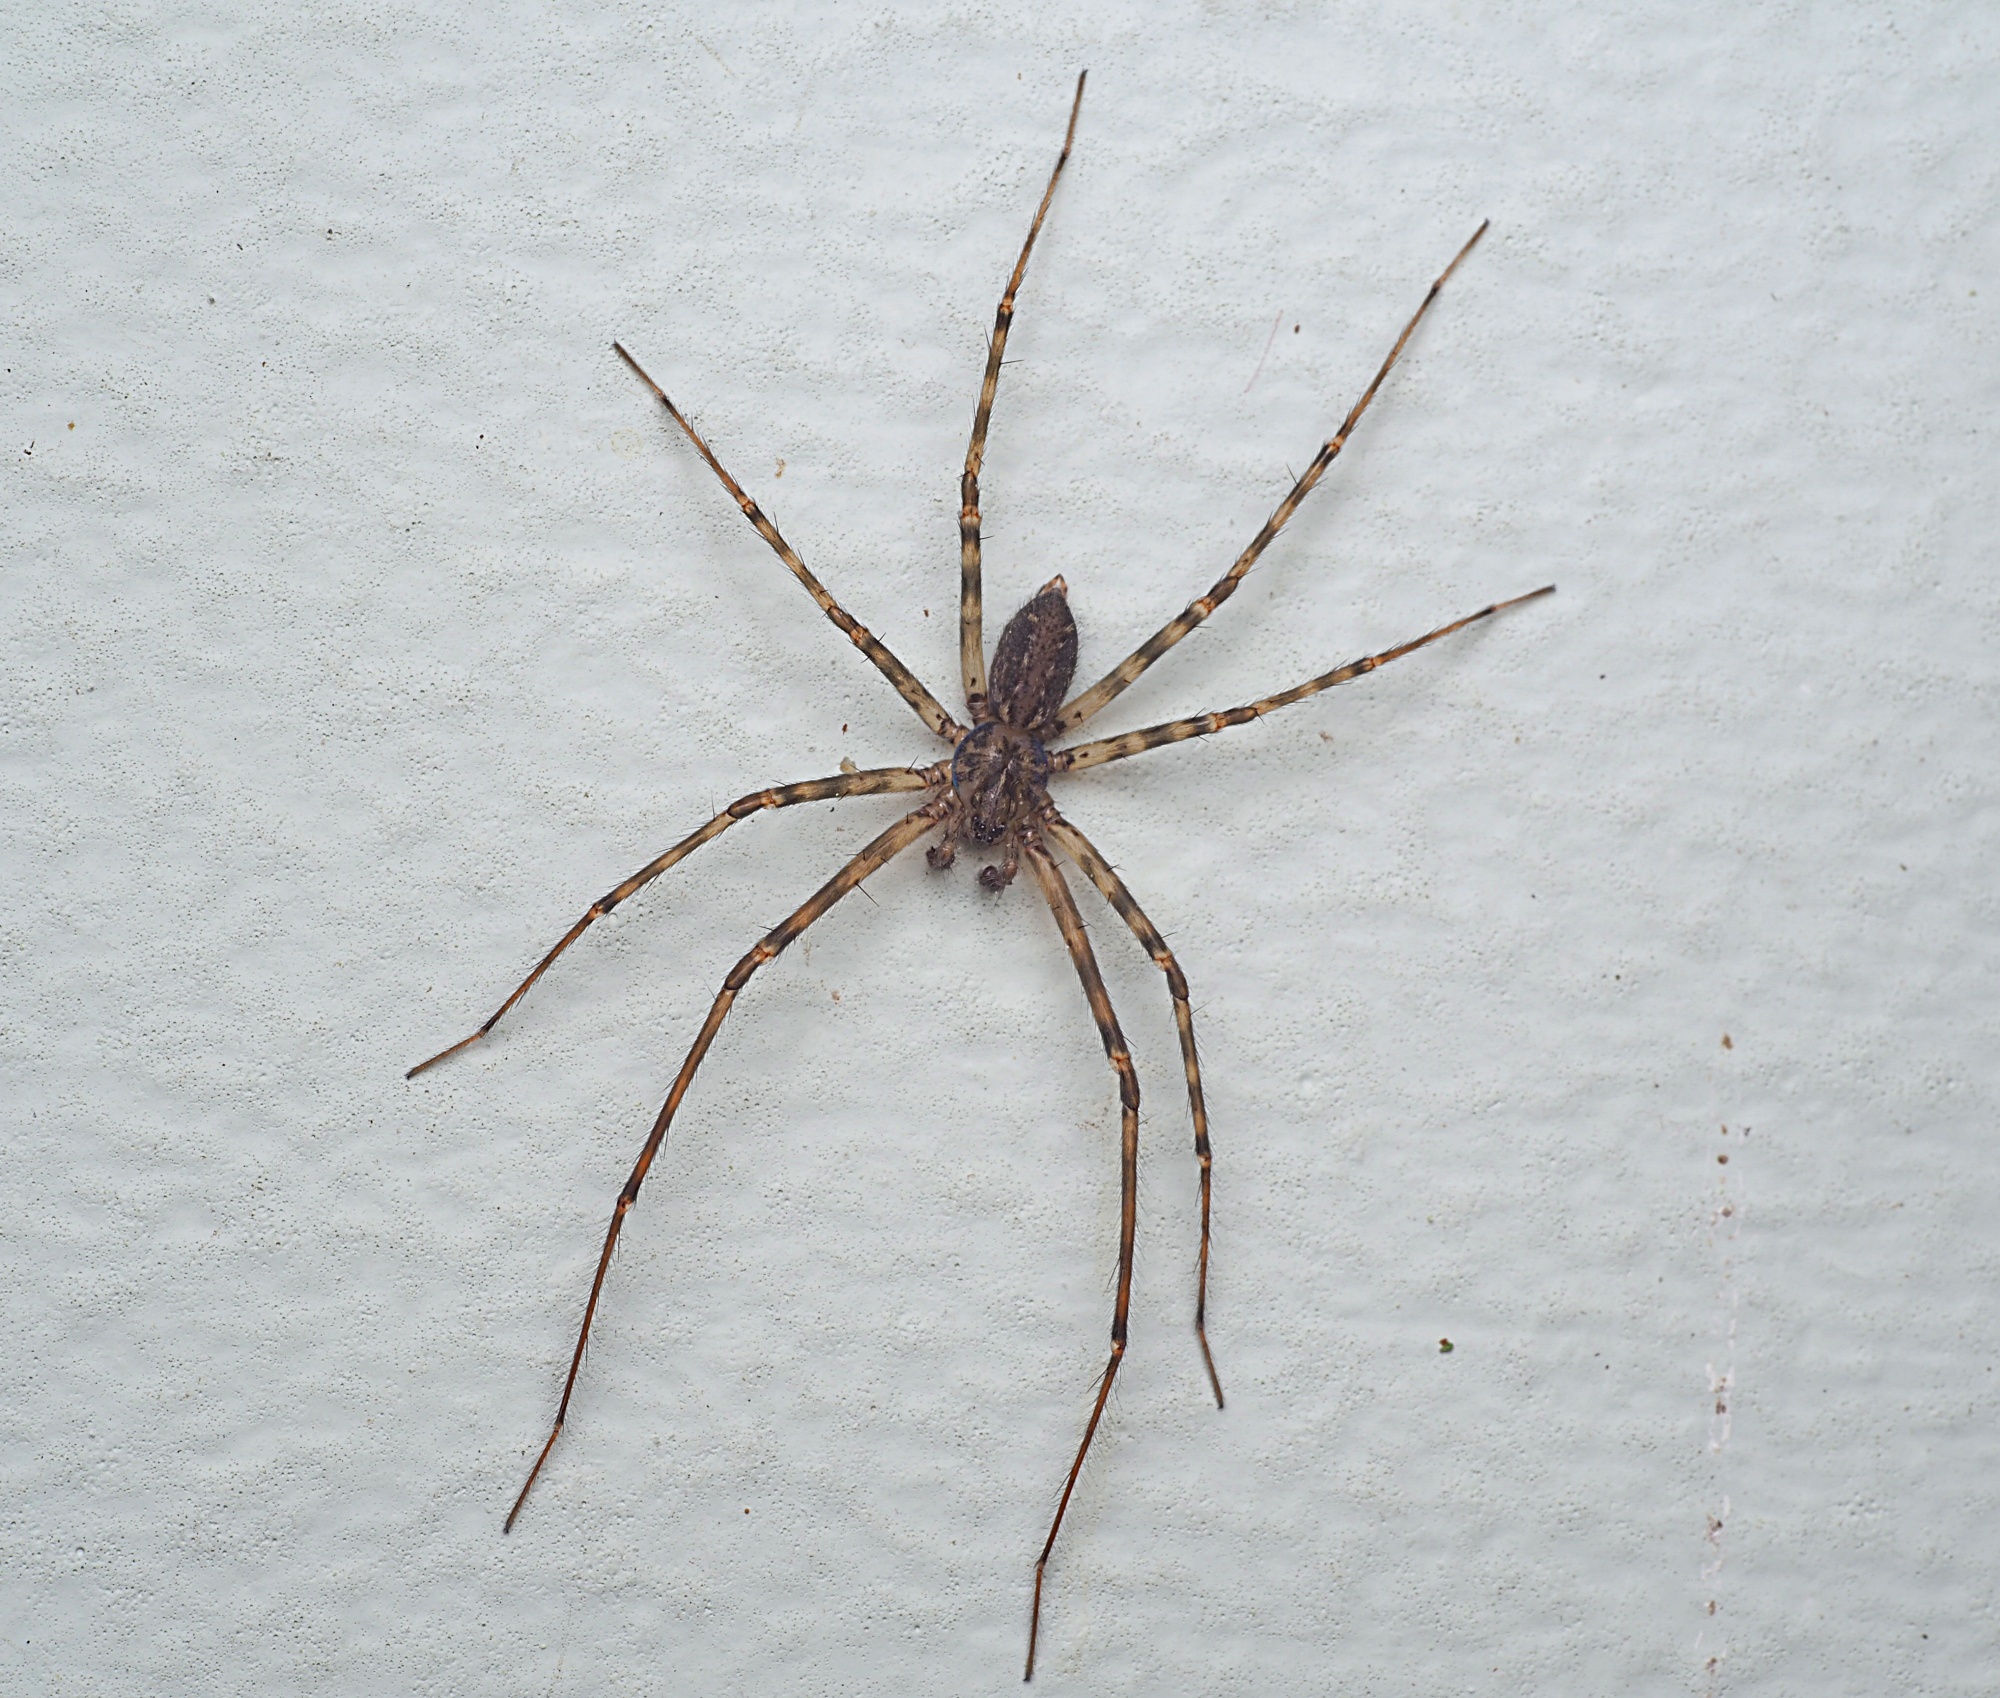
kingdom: Animalia
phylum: Arthropoda
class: Arachnida
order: Araneae
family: Stiphidiidae
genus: Stiphidion
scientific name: Stiphidion facetum
